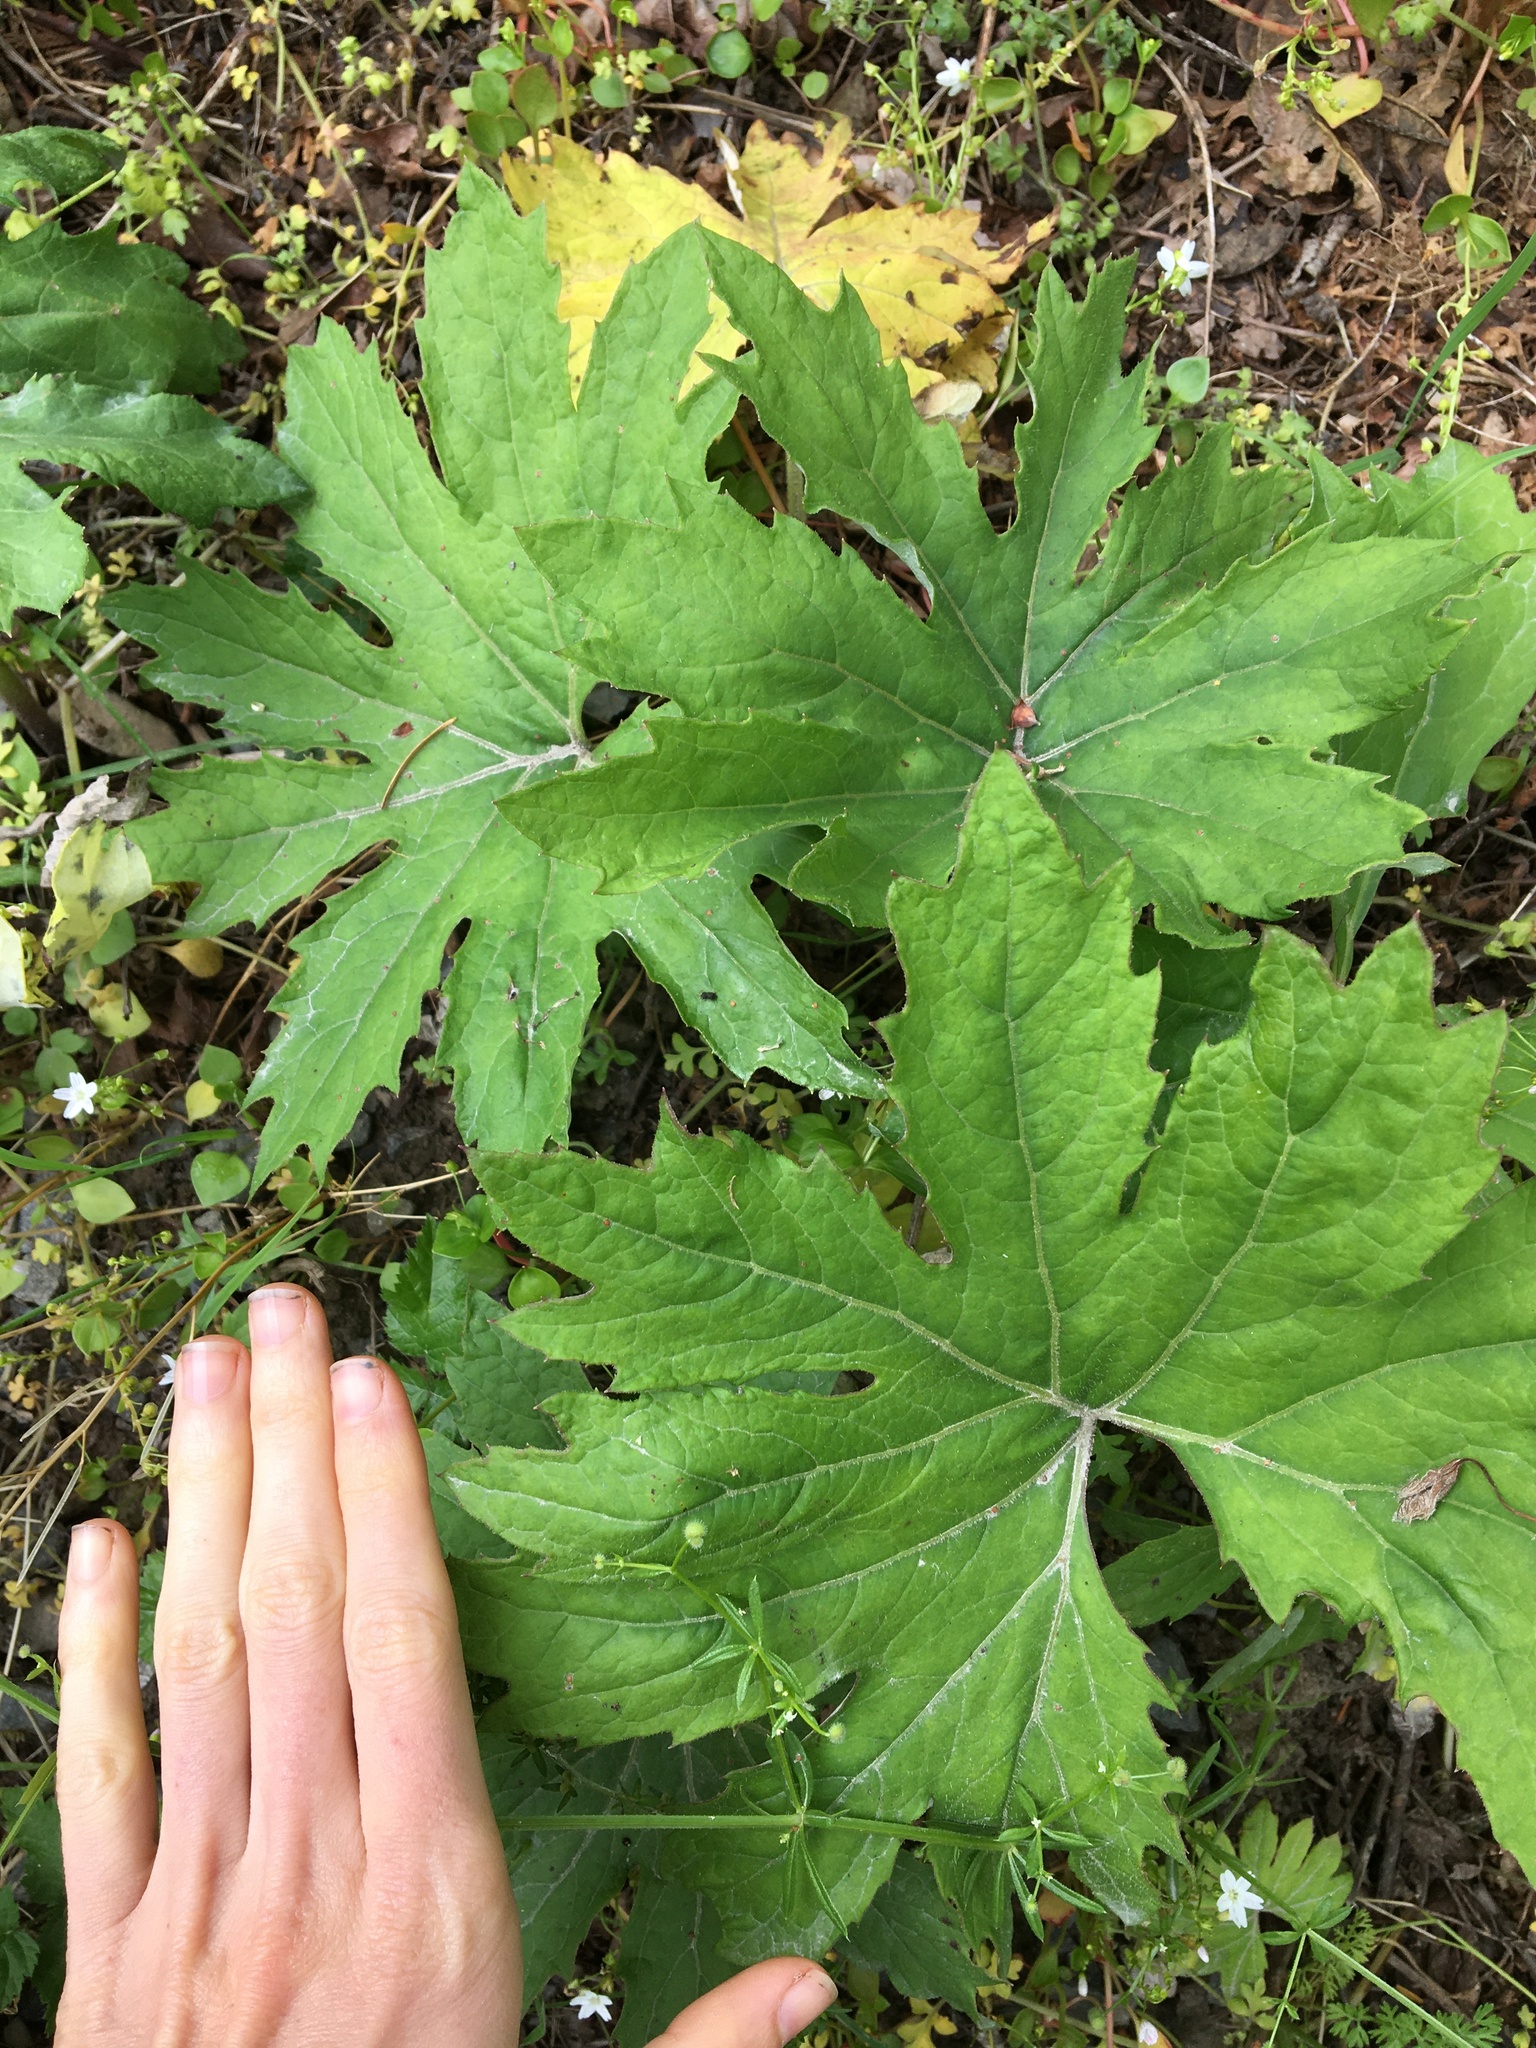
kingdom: Plantae
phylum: Tracheophyta
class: Magnoliopsida
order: Asterales
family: Asteraceae
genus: Petasites
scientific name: Petasites frigidus
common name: Arctic butterbur
